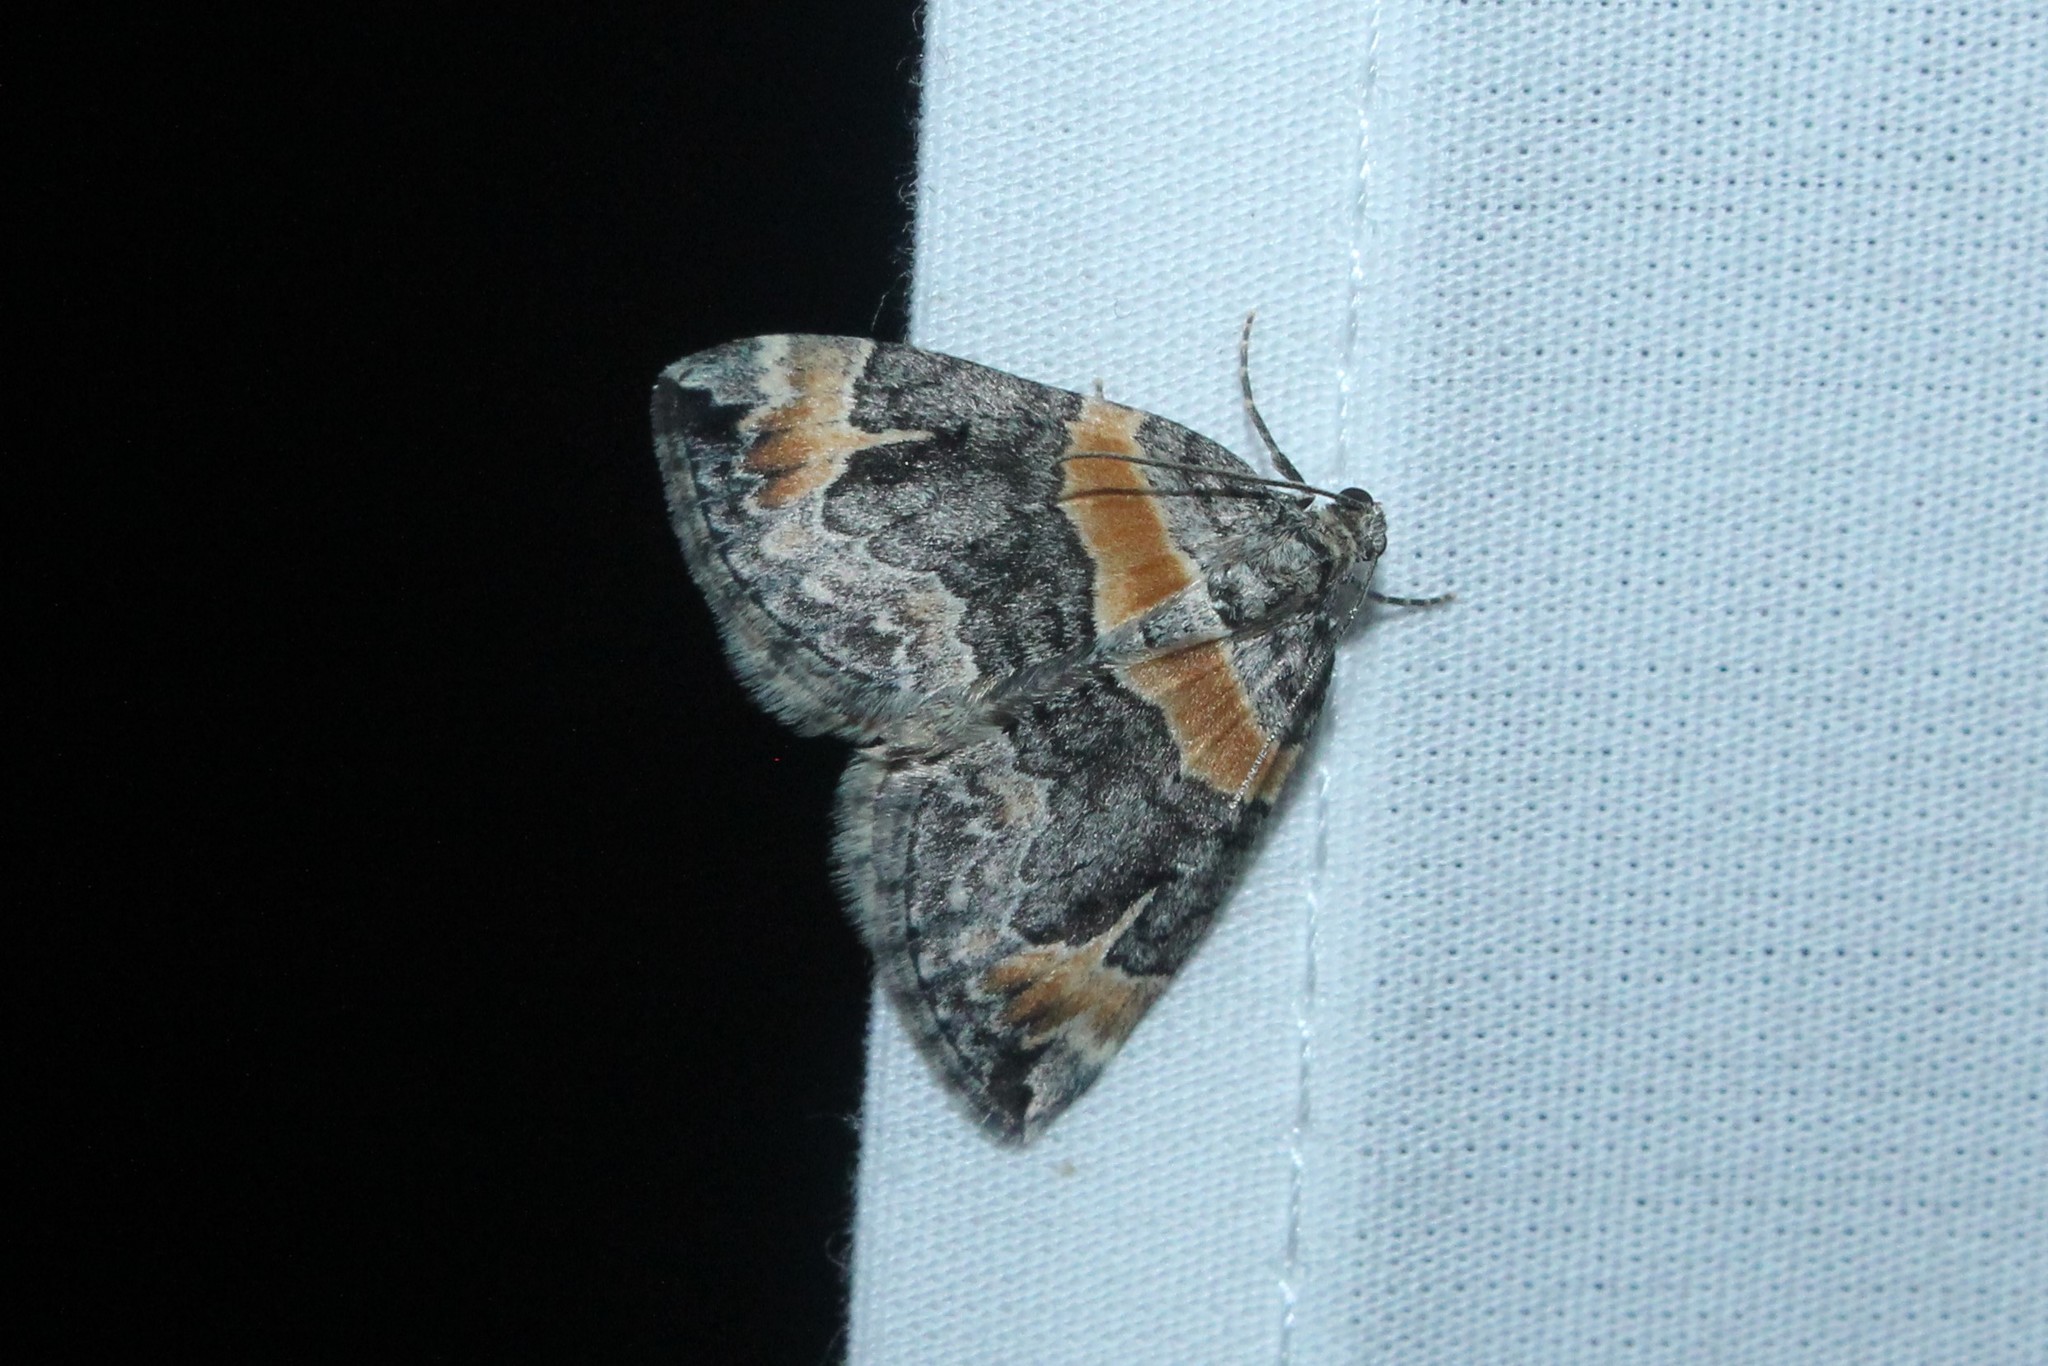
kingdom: Animalia
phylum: Arthropoda
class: Insecta
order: Lepidoptera
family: Geometridae
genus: Dysstroma
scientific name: Dysstroma hersiliata
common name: Orange-barred carpet
